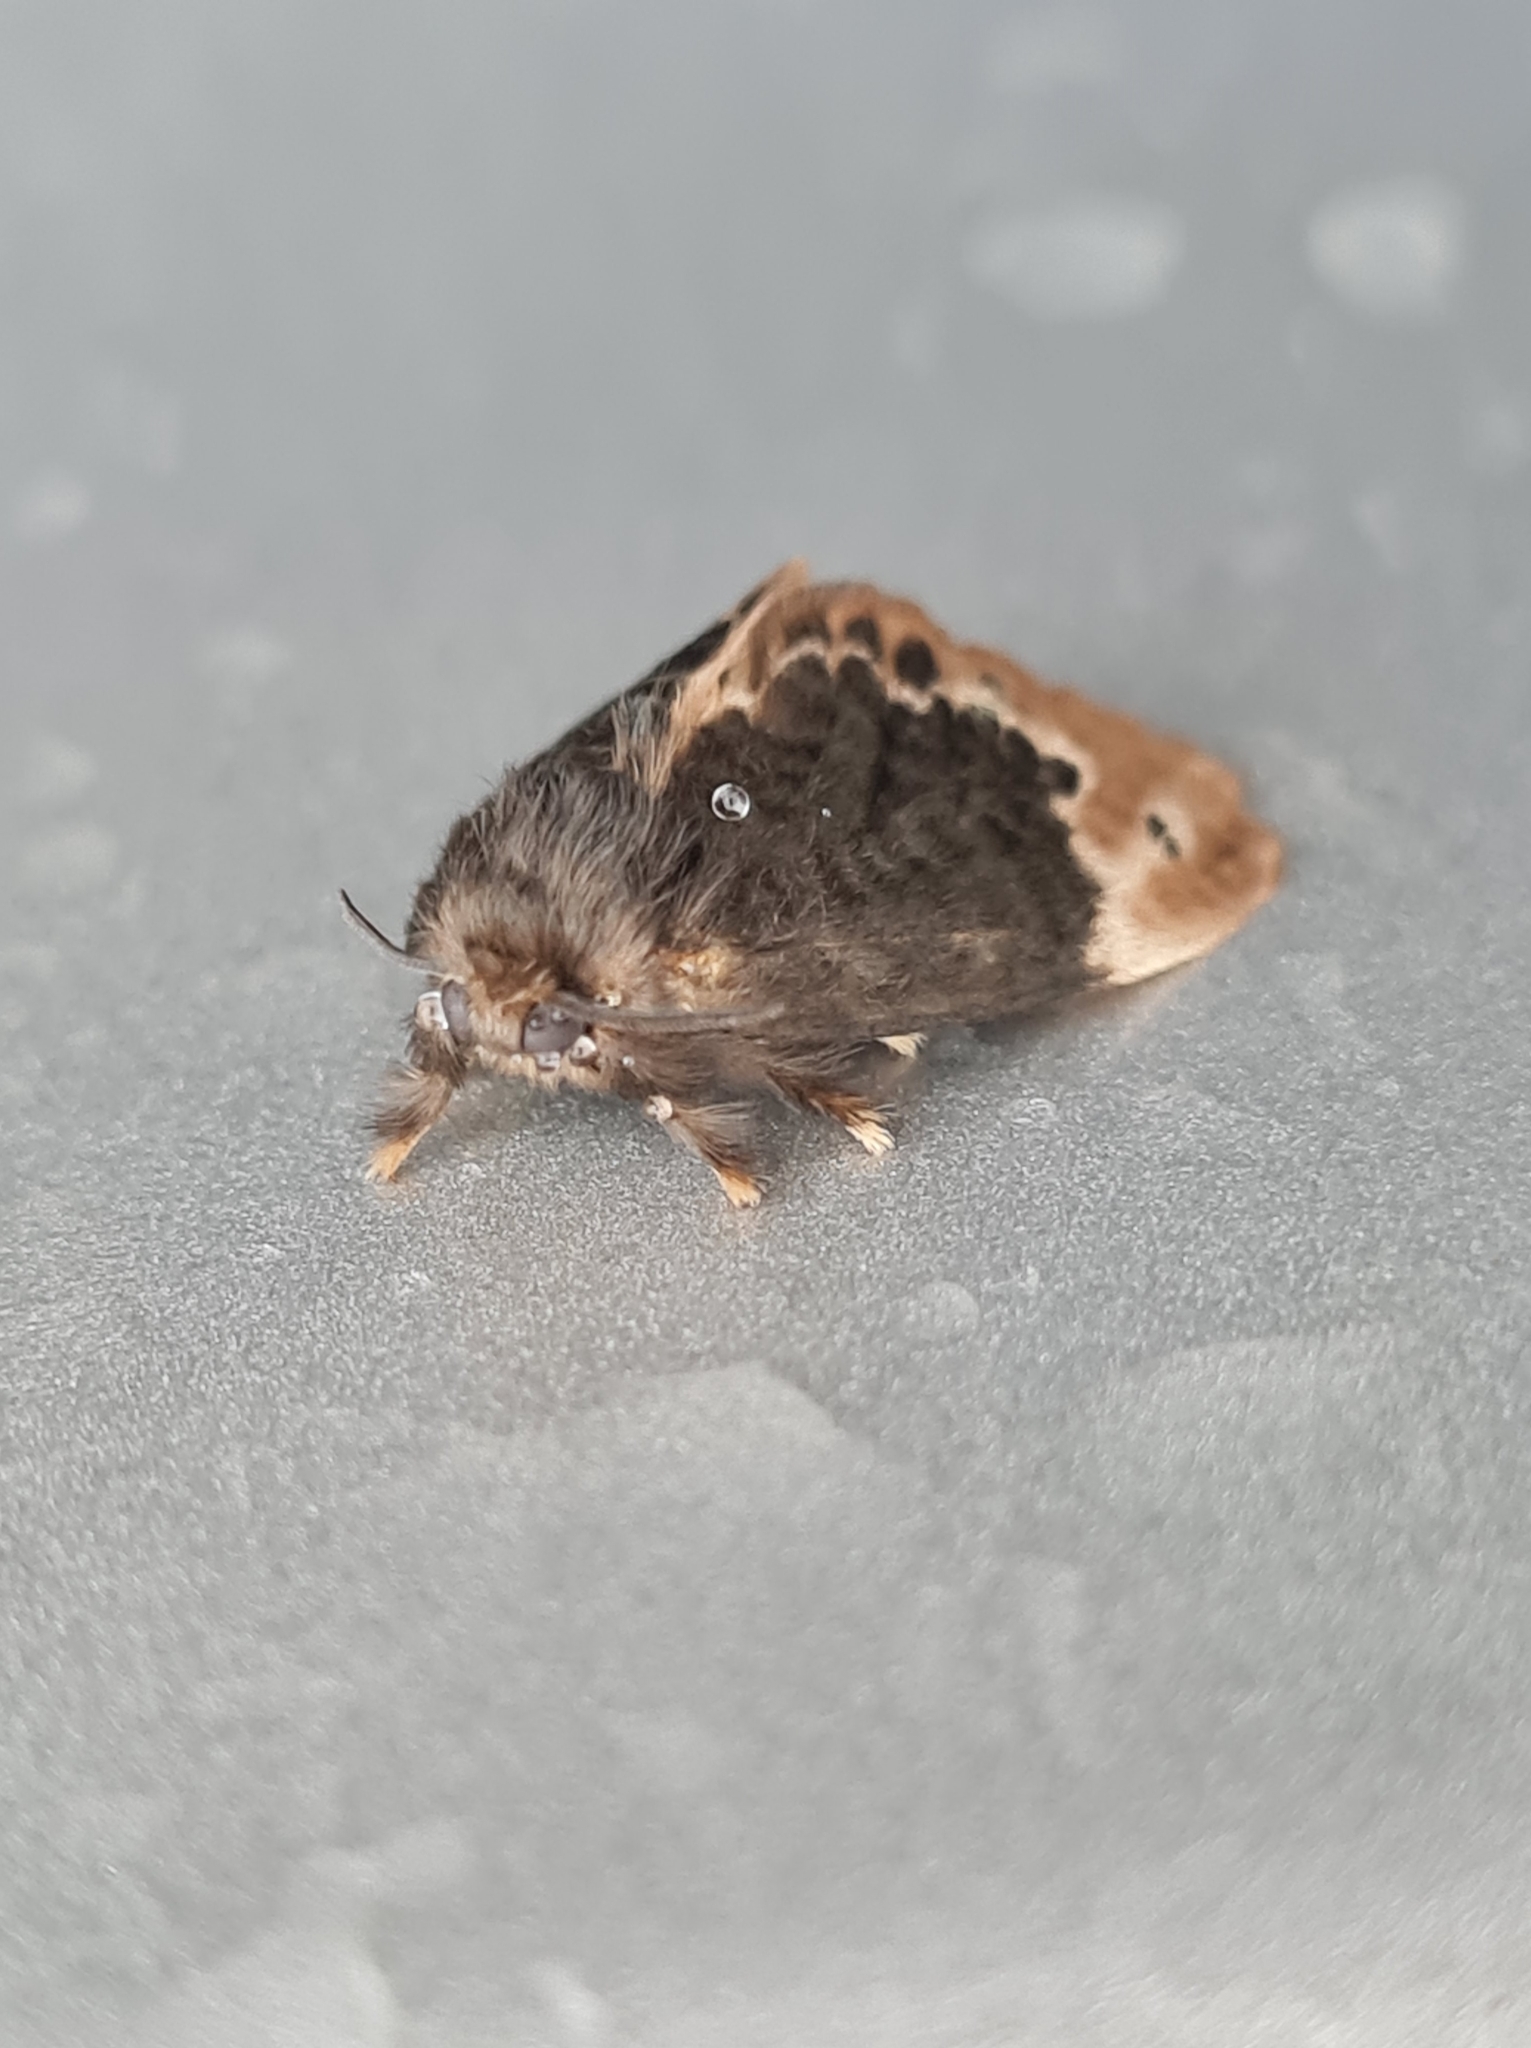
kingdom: Animalia
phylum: Arthropoda
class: Insecta
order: Lepidoptera
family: Megalopygidae
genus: Podalia
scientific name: Podalia dimidiatus
